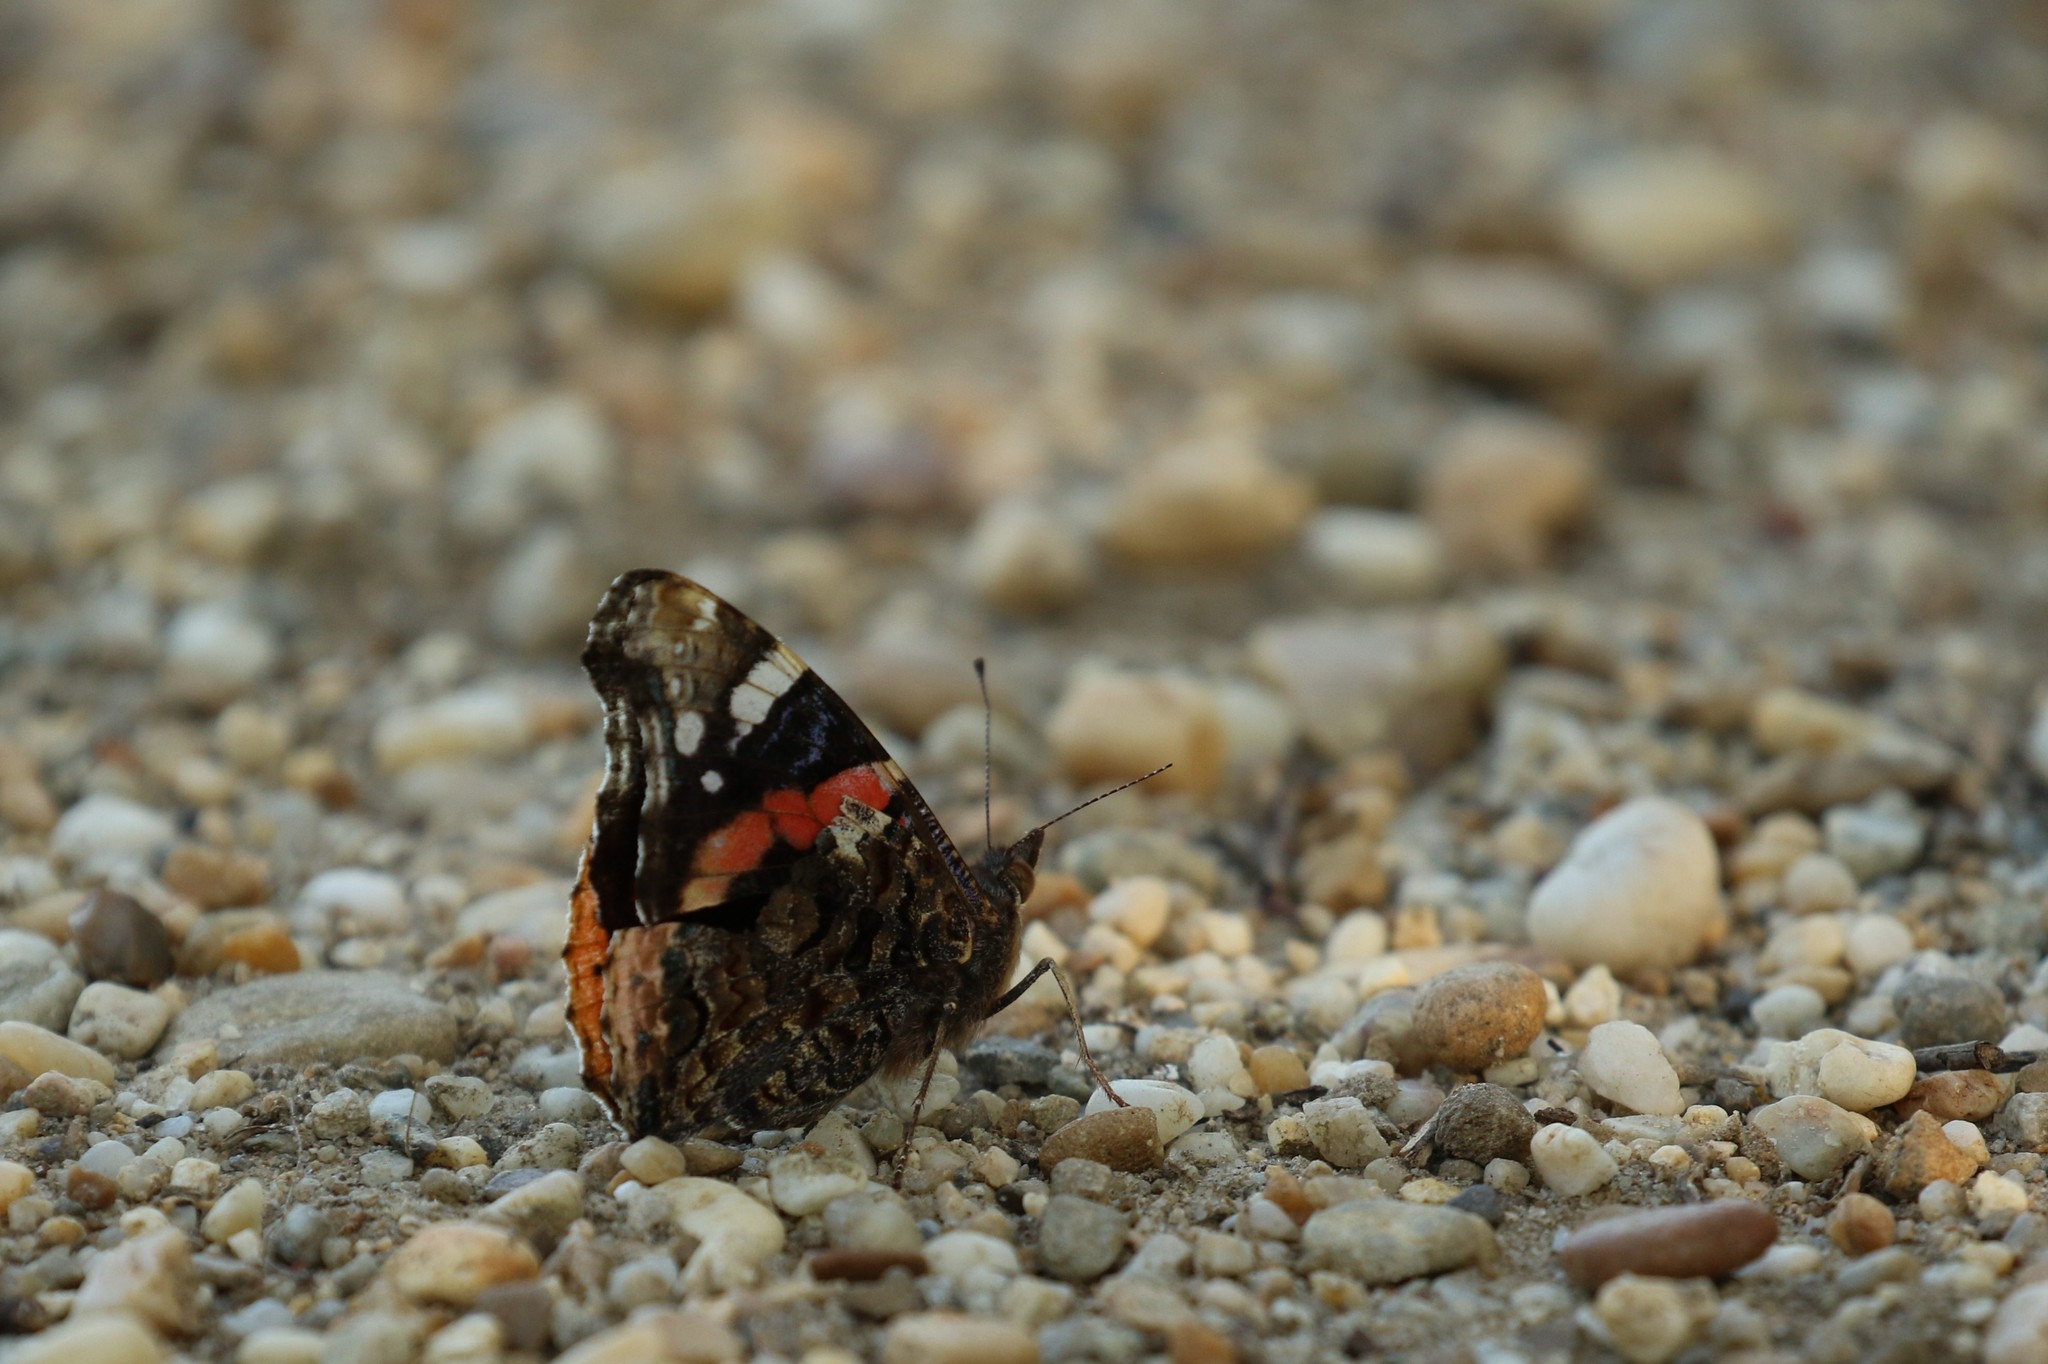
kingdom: Animalia
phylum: Arthropoda
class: Insecta
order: Lepidoptera
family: Nymphalidae
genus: Vanessa
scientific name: Vanessa atalanta
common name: Red admiral
